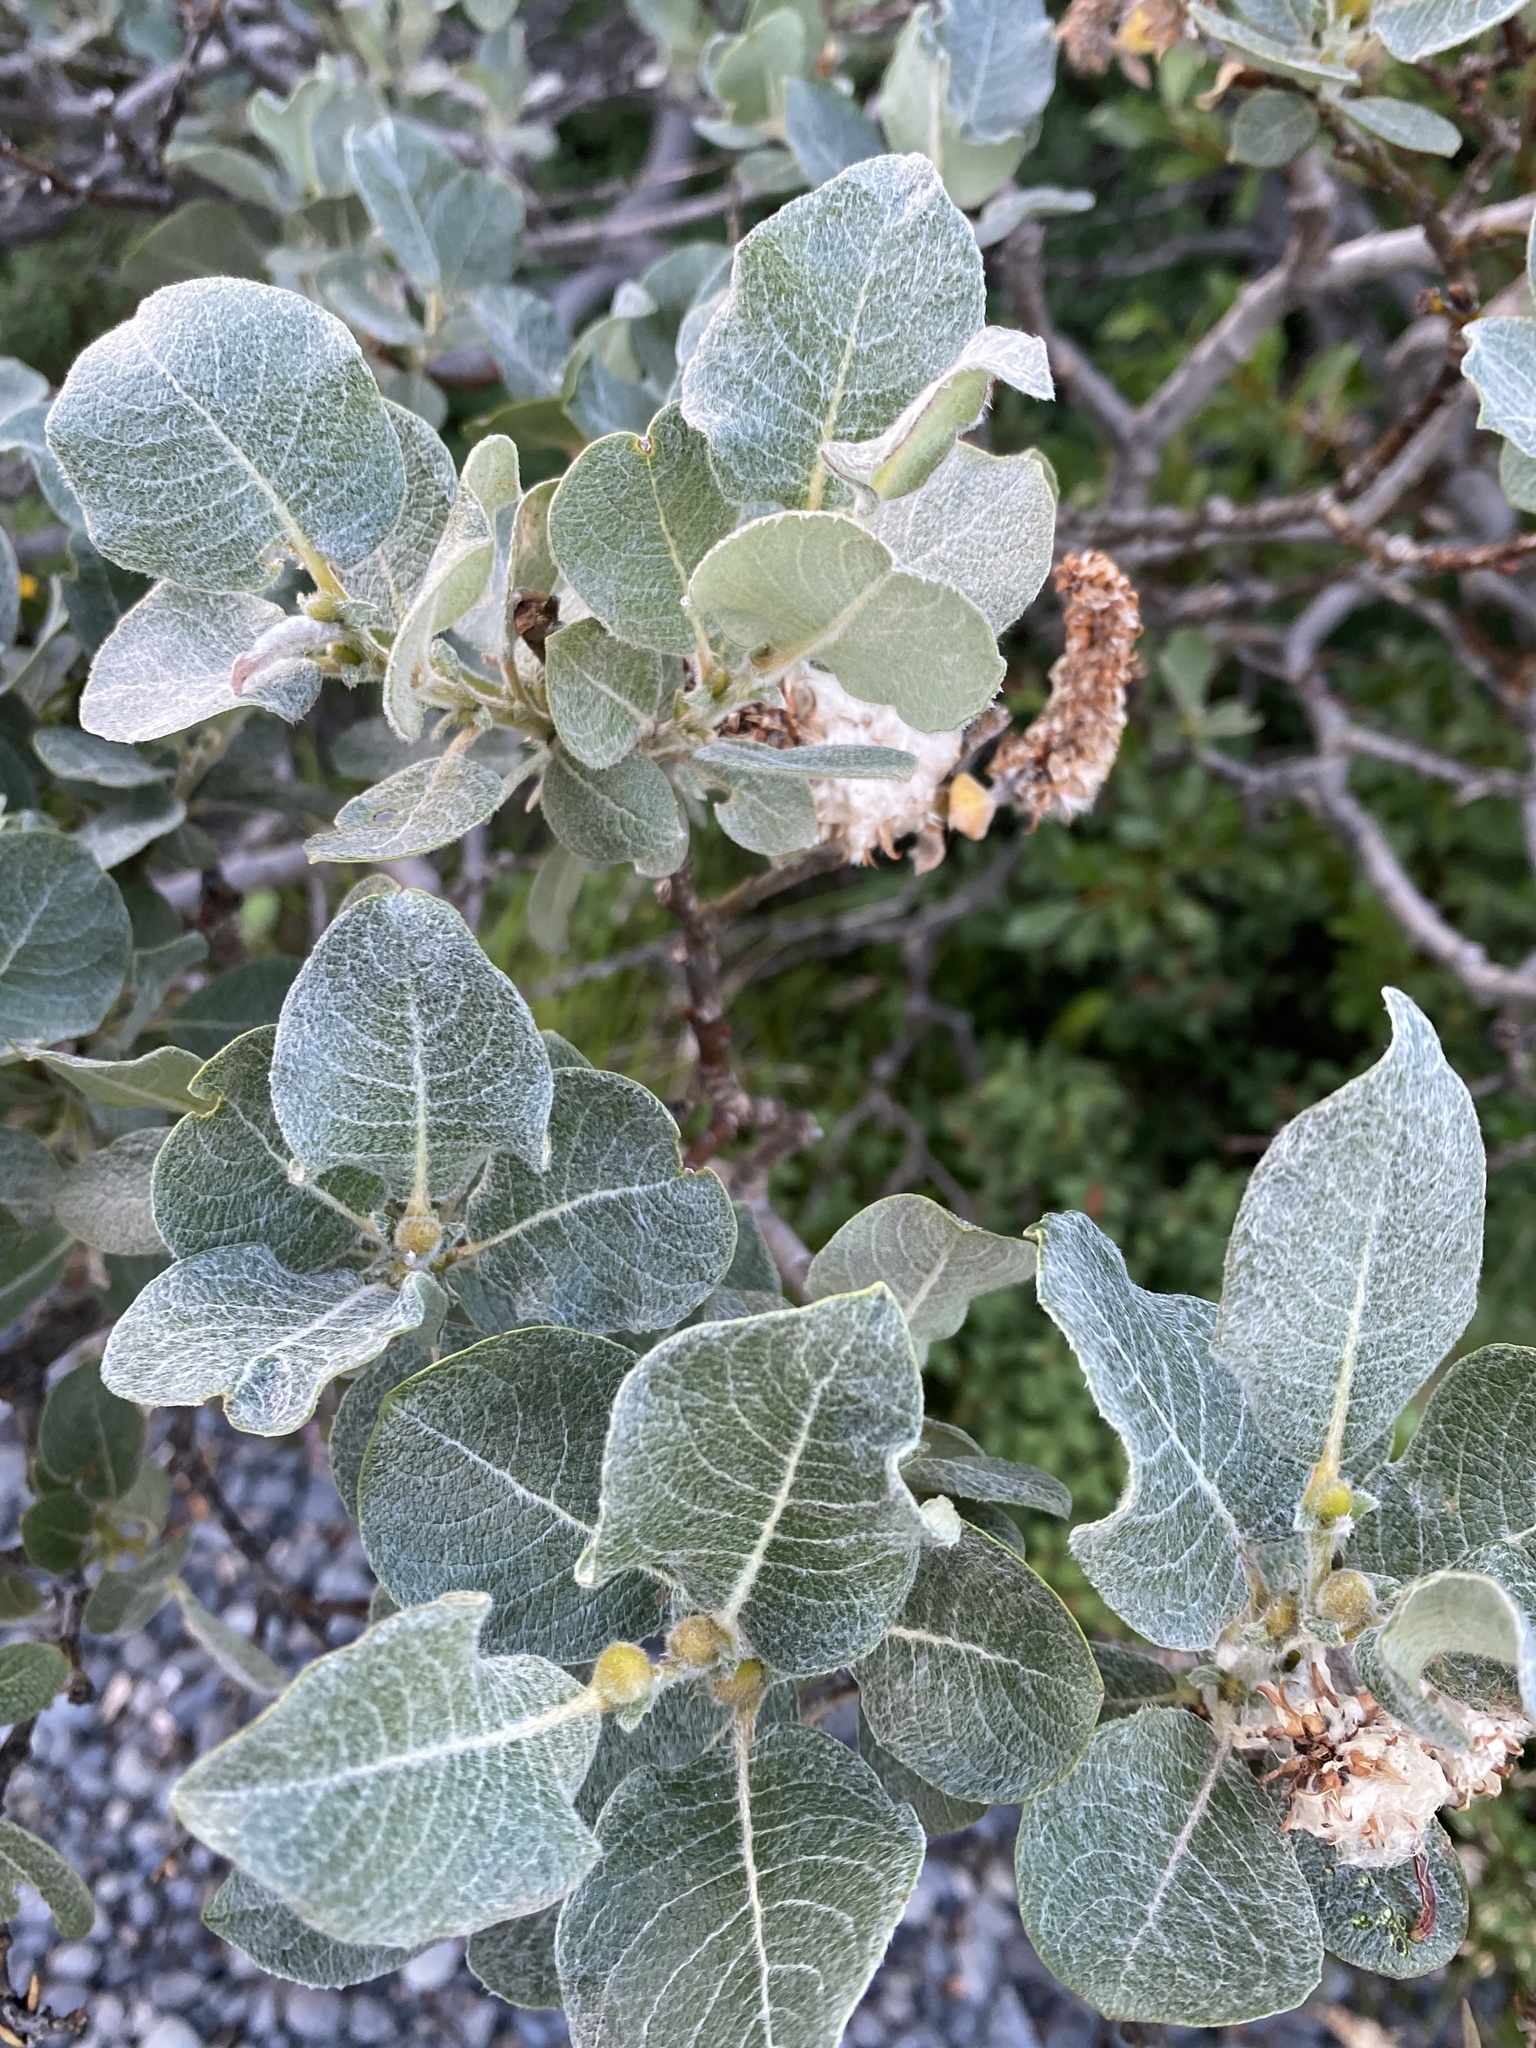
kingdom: Plantae
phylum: Tracheophyta
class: Magnoliopsida
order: Malpighiales
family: Salicaceae
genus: Salix
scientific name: Salix lanata
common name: Woolly willow
